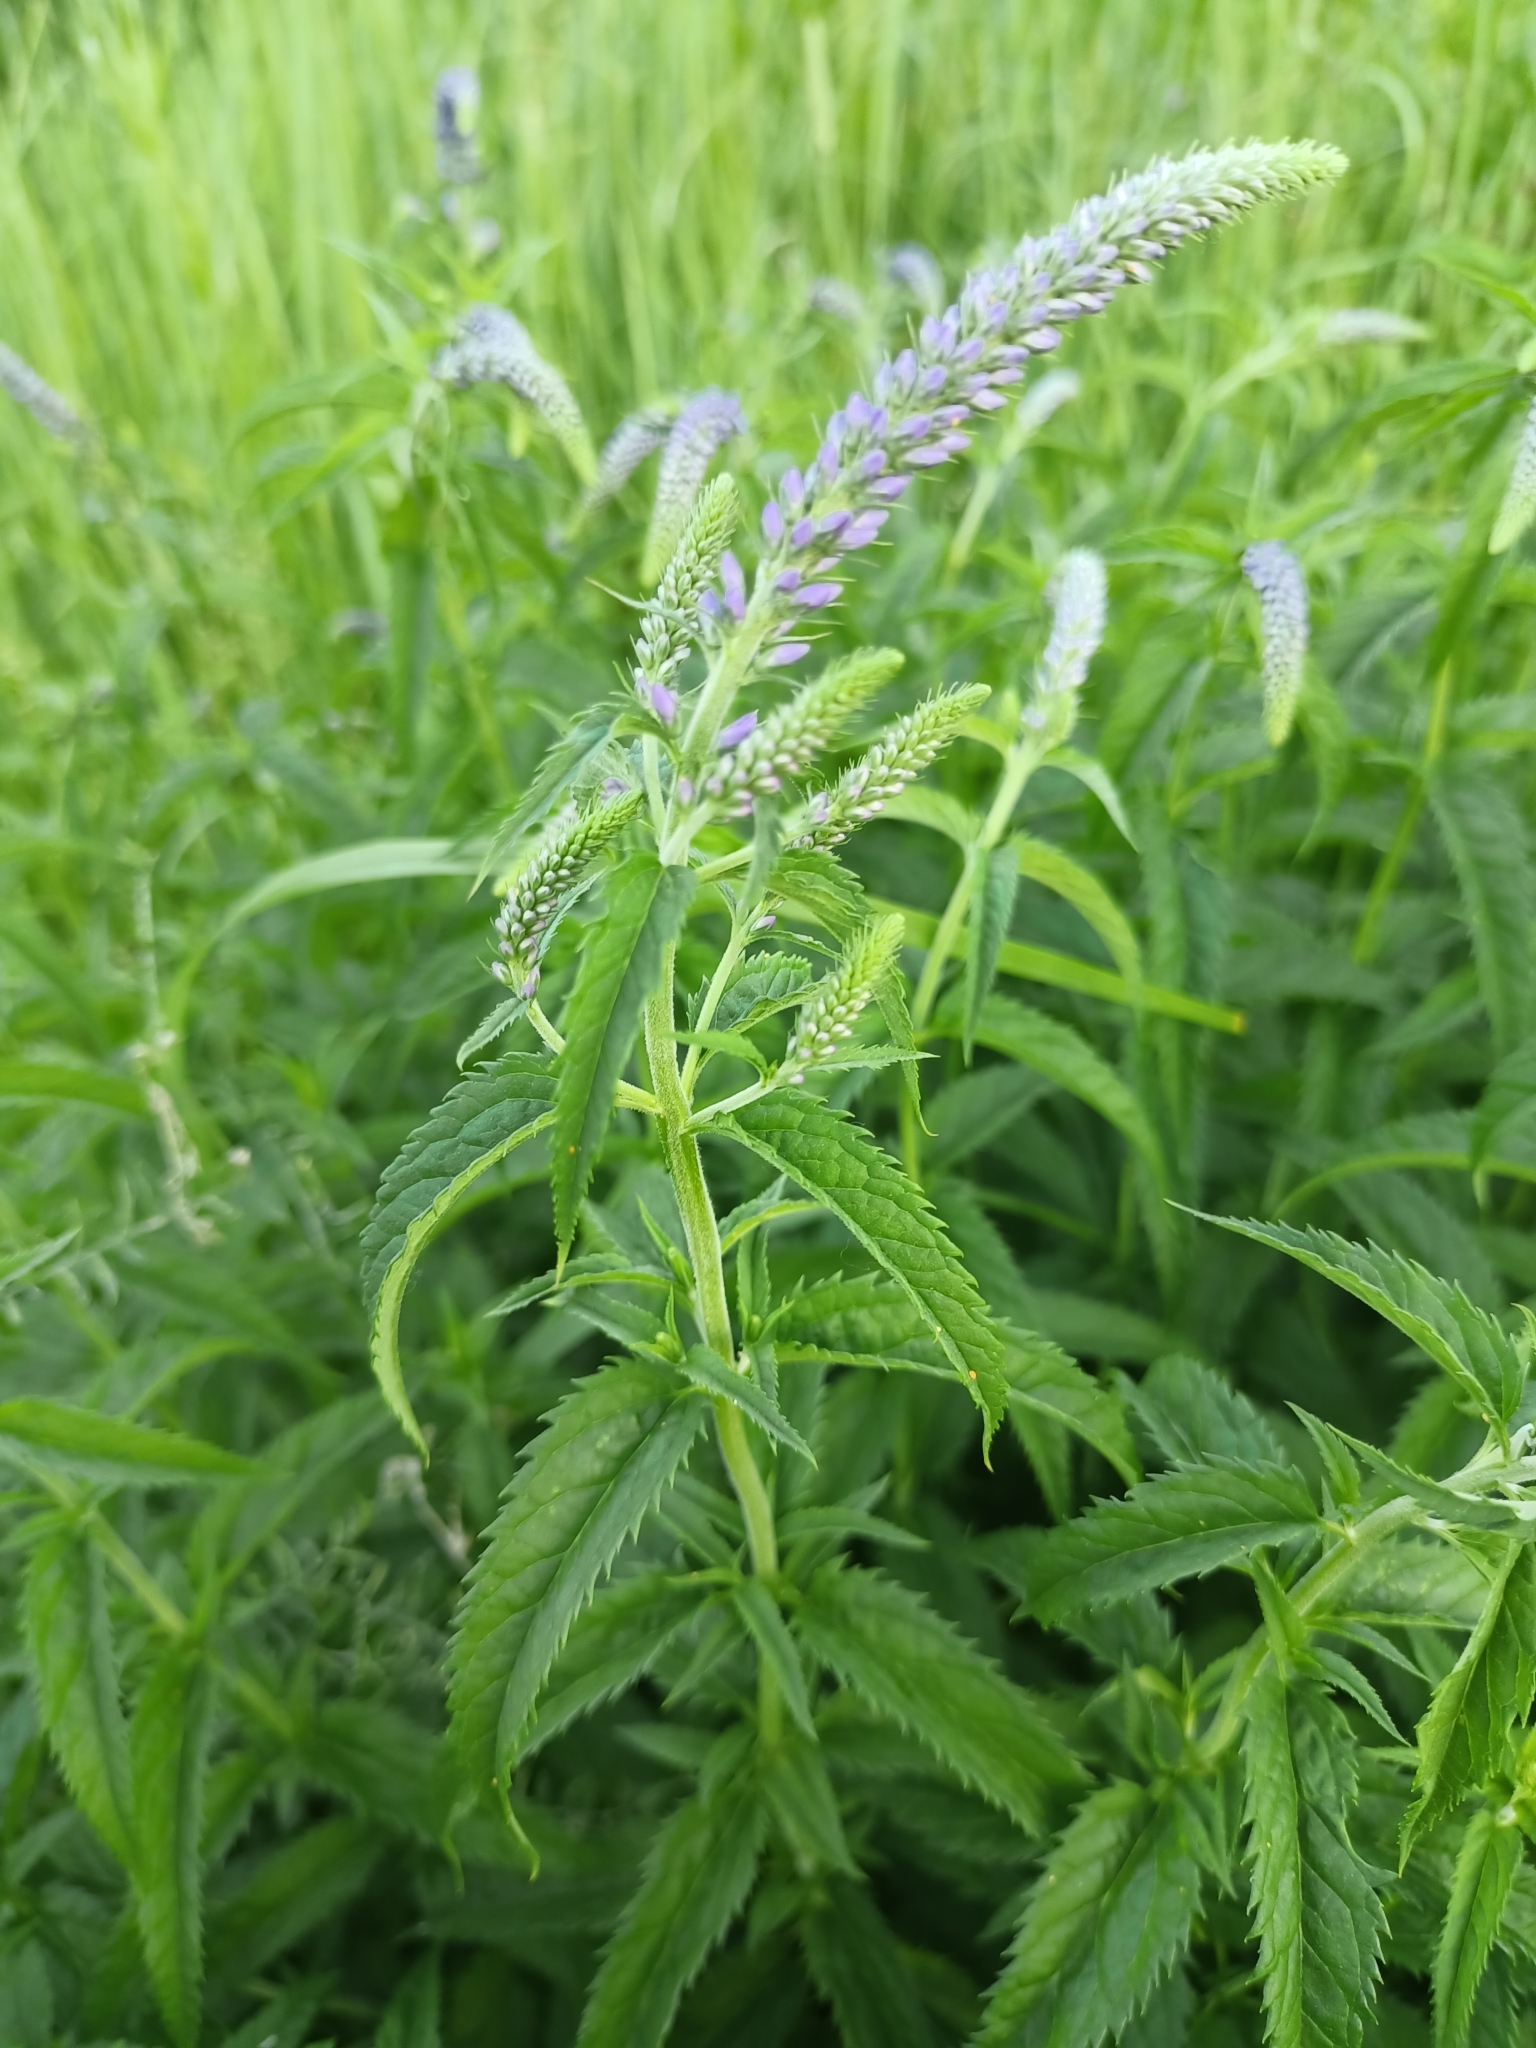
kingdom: Plantae
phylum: Tracheophyta
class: Magnoliopsida
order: Lamiales
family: Plantaginaceae
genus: Veronica
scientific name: Veronica longifolia
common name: Garden speedwell
